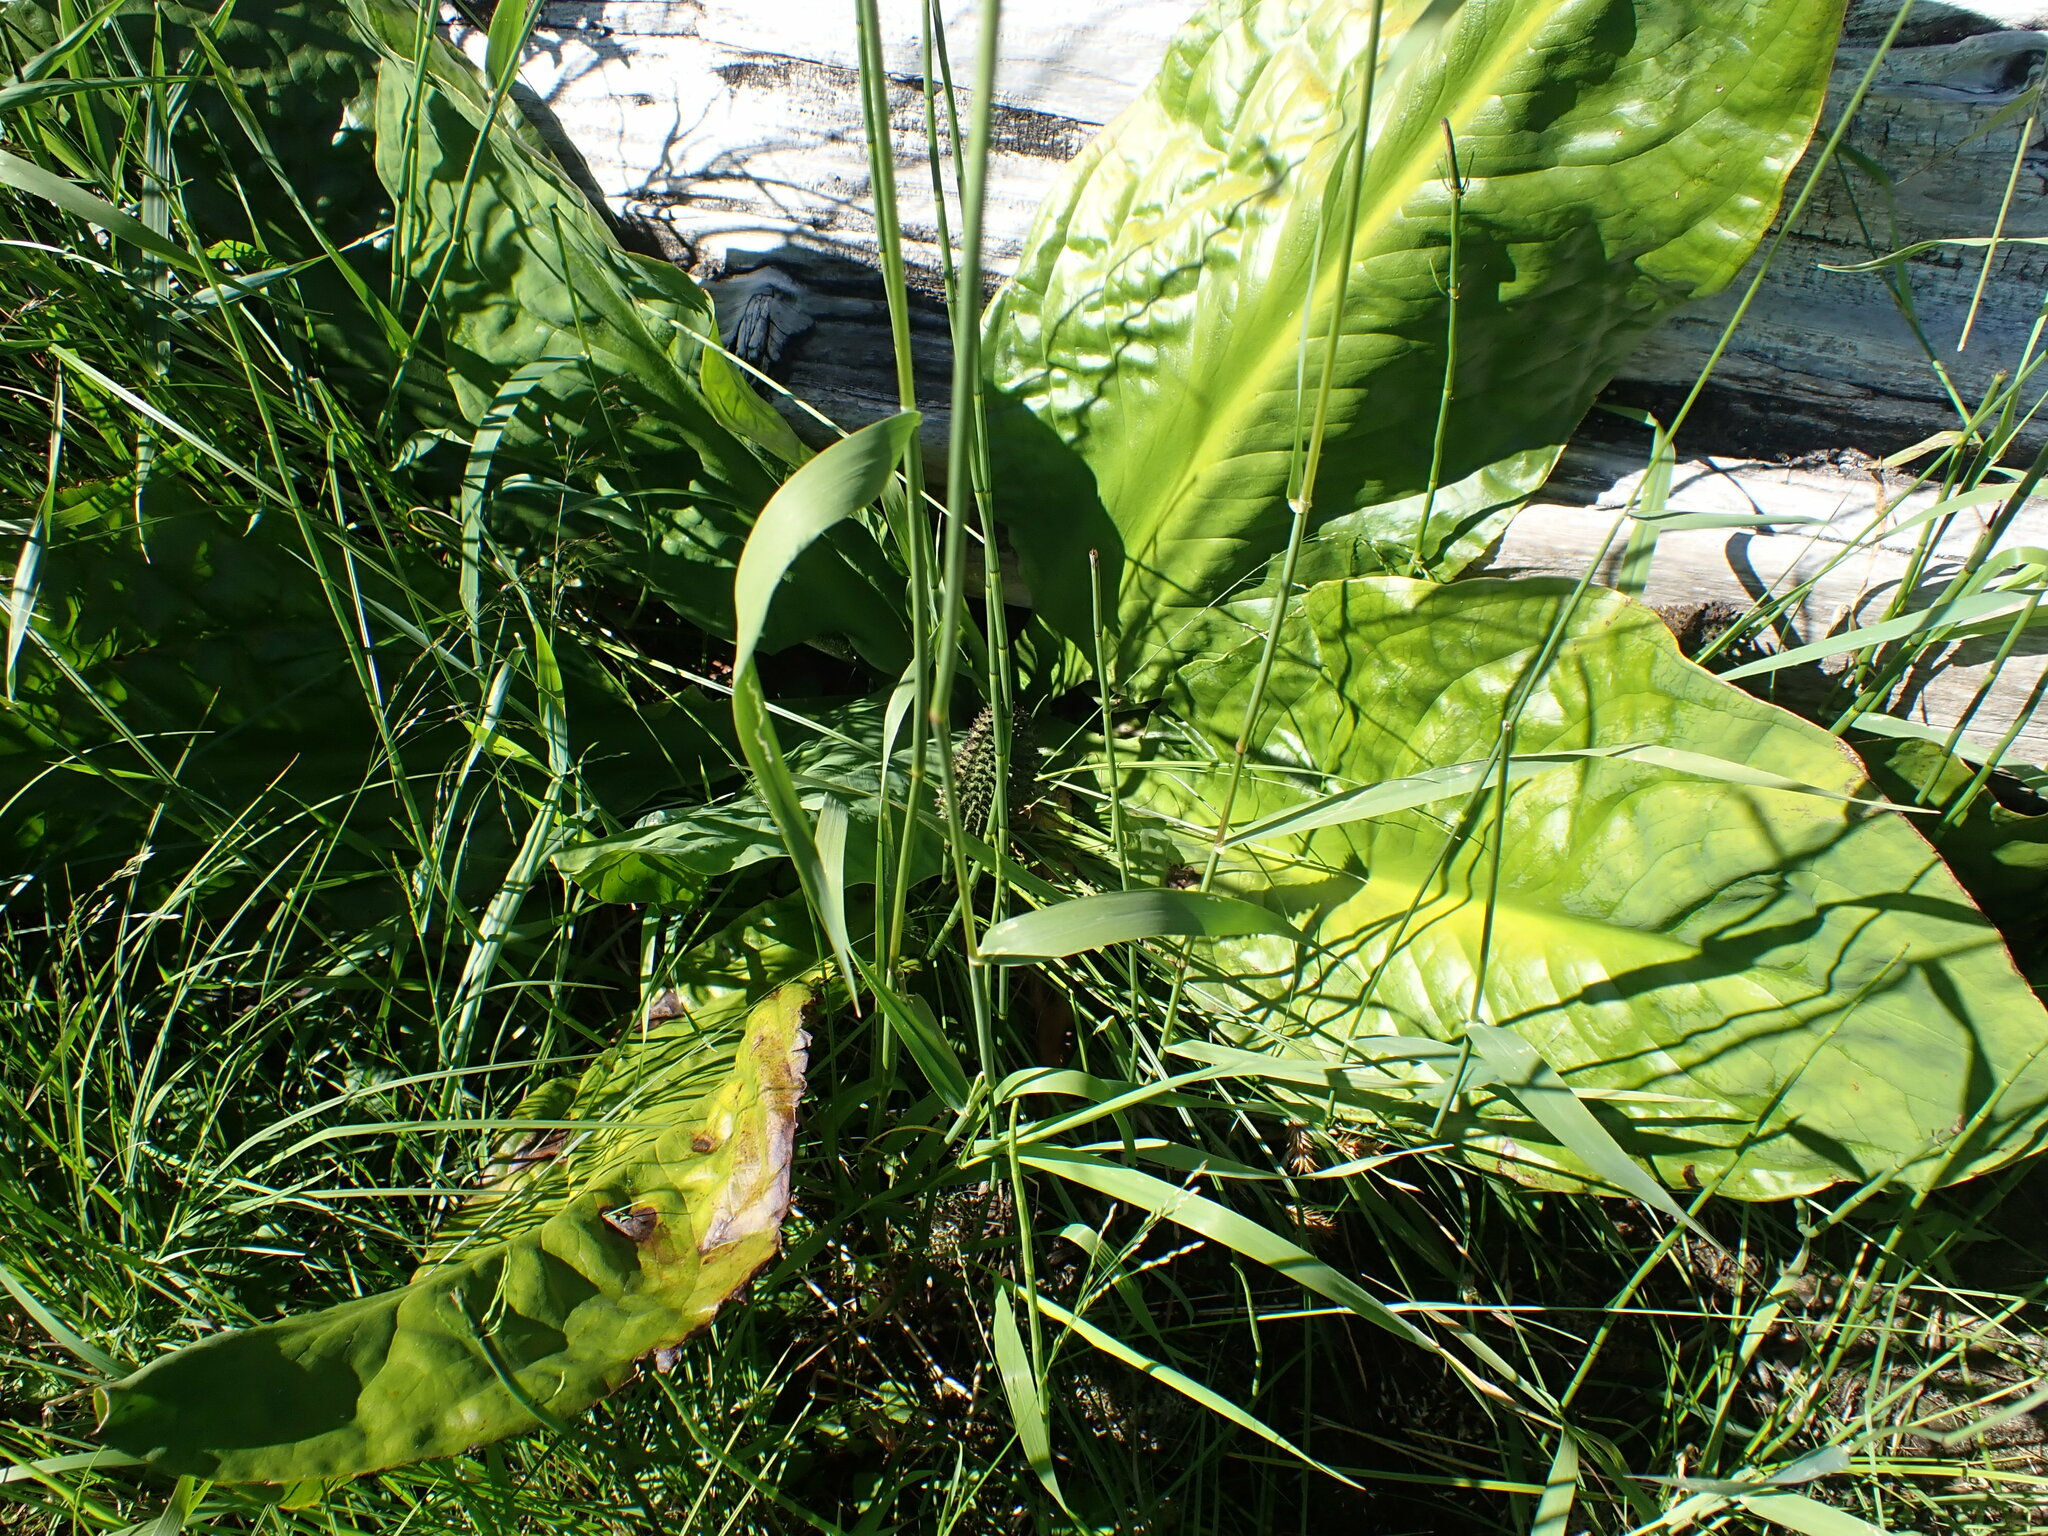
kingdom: Plantae
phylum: Tracheophyta
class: Liliopsida
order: Alismatales
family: Araceae
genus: Lysichiton
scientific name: Lysichiton americanus
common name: American skunk cabbage
